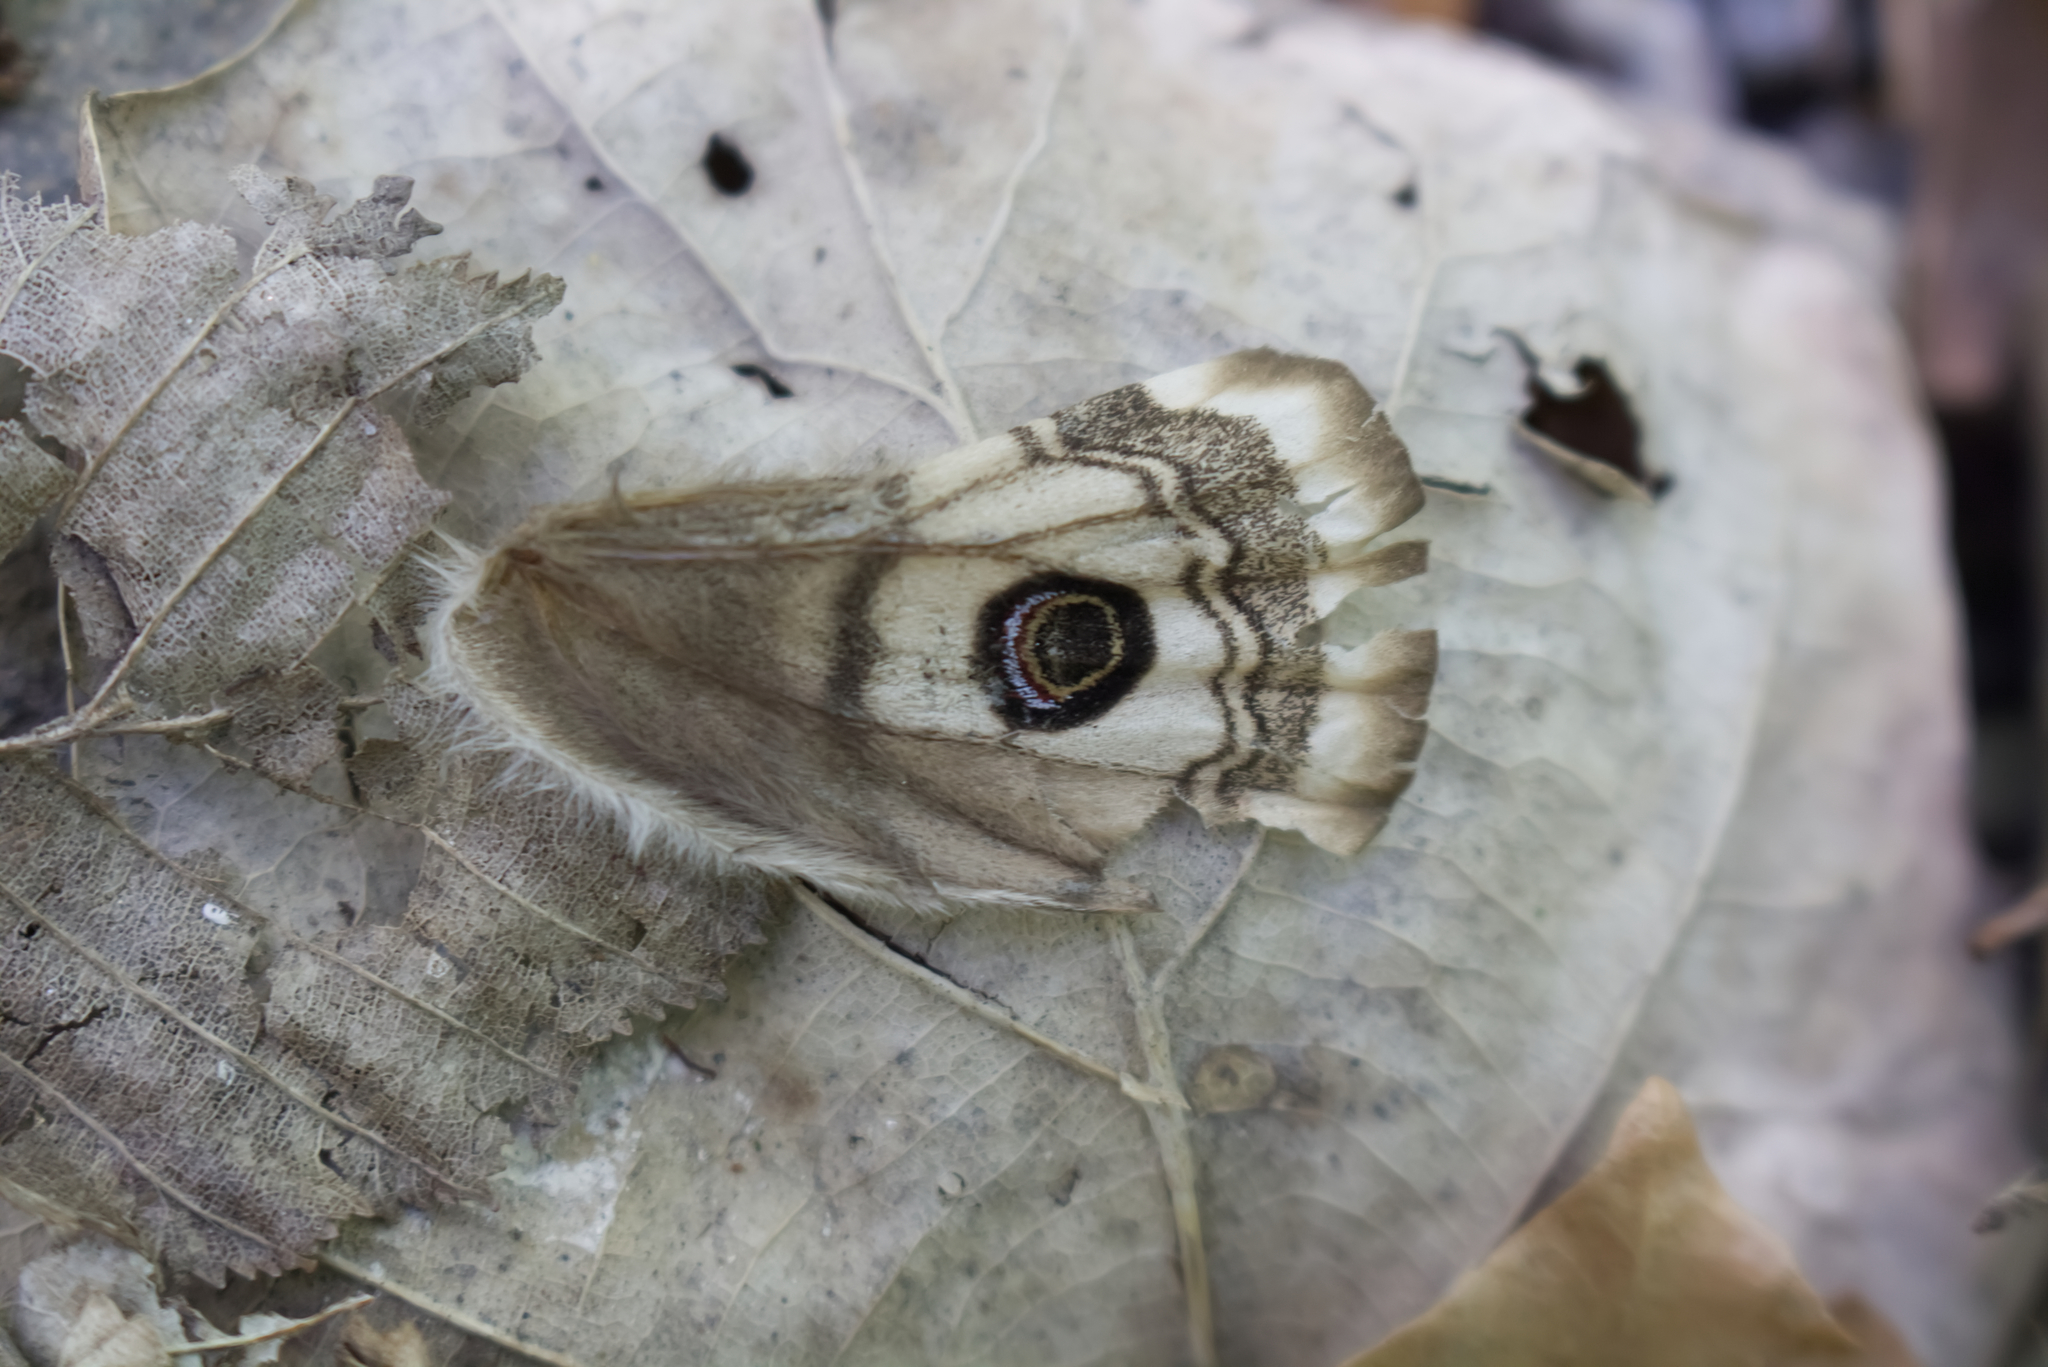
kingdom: Animalia
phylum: Arthropoda
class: Insecta
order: Lepidoptera
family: Saturniidae
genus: Saturnia
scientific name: Saturnia pavonia
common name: Emperor moth
